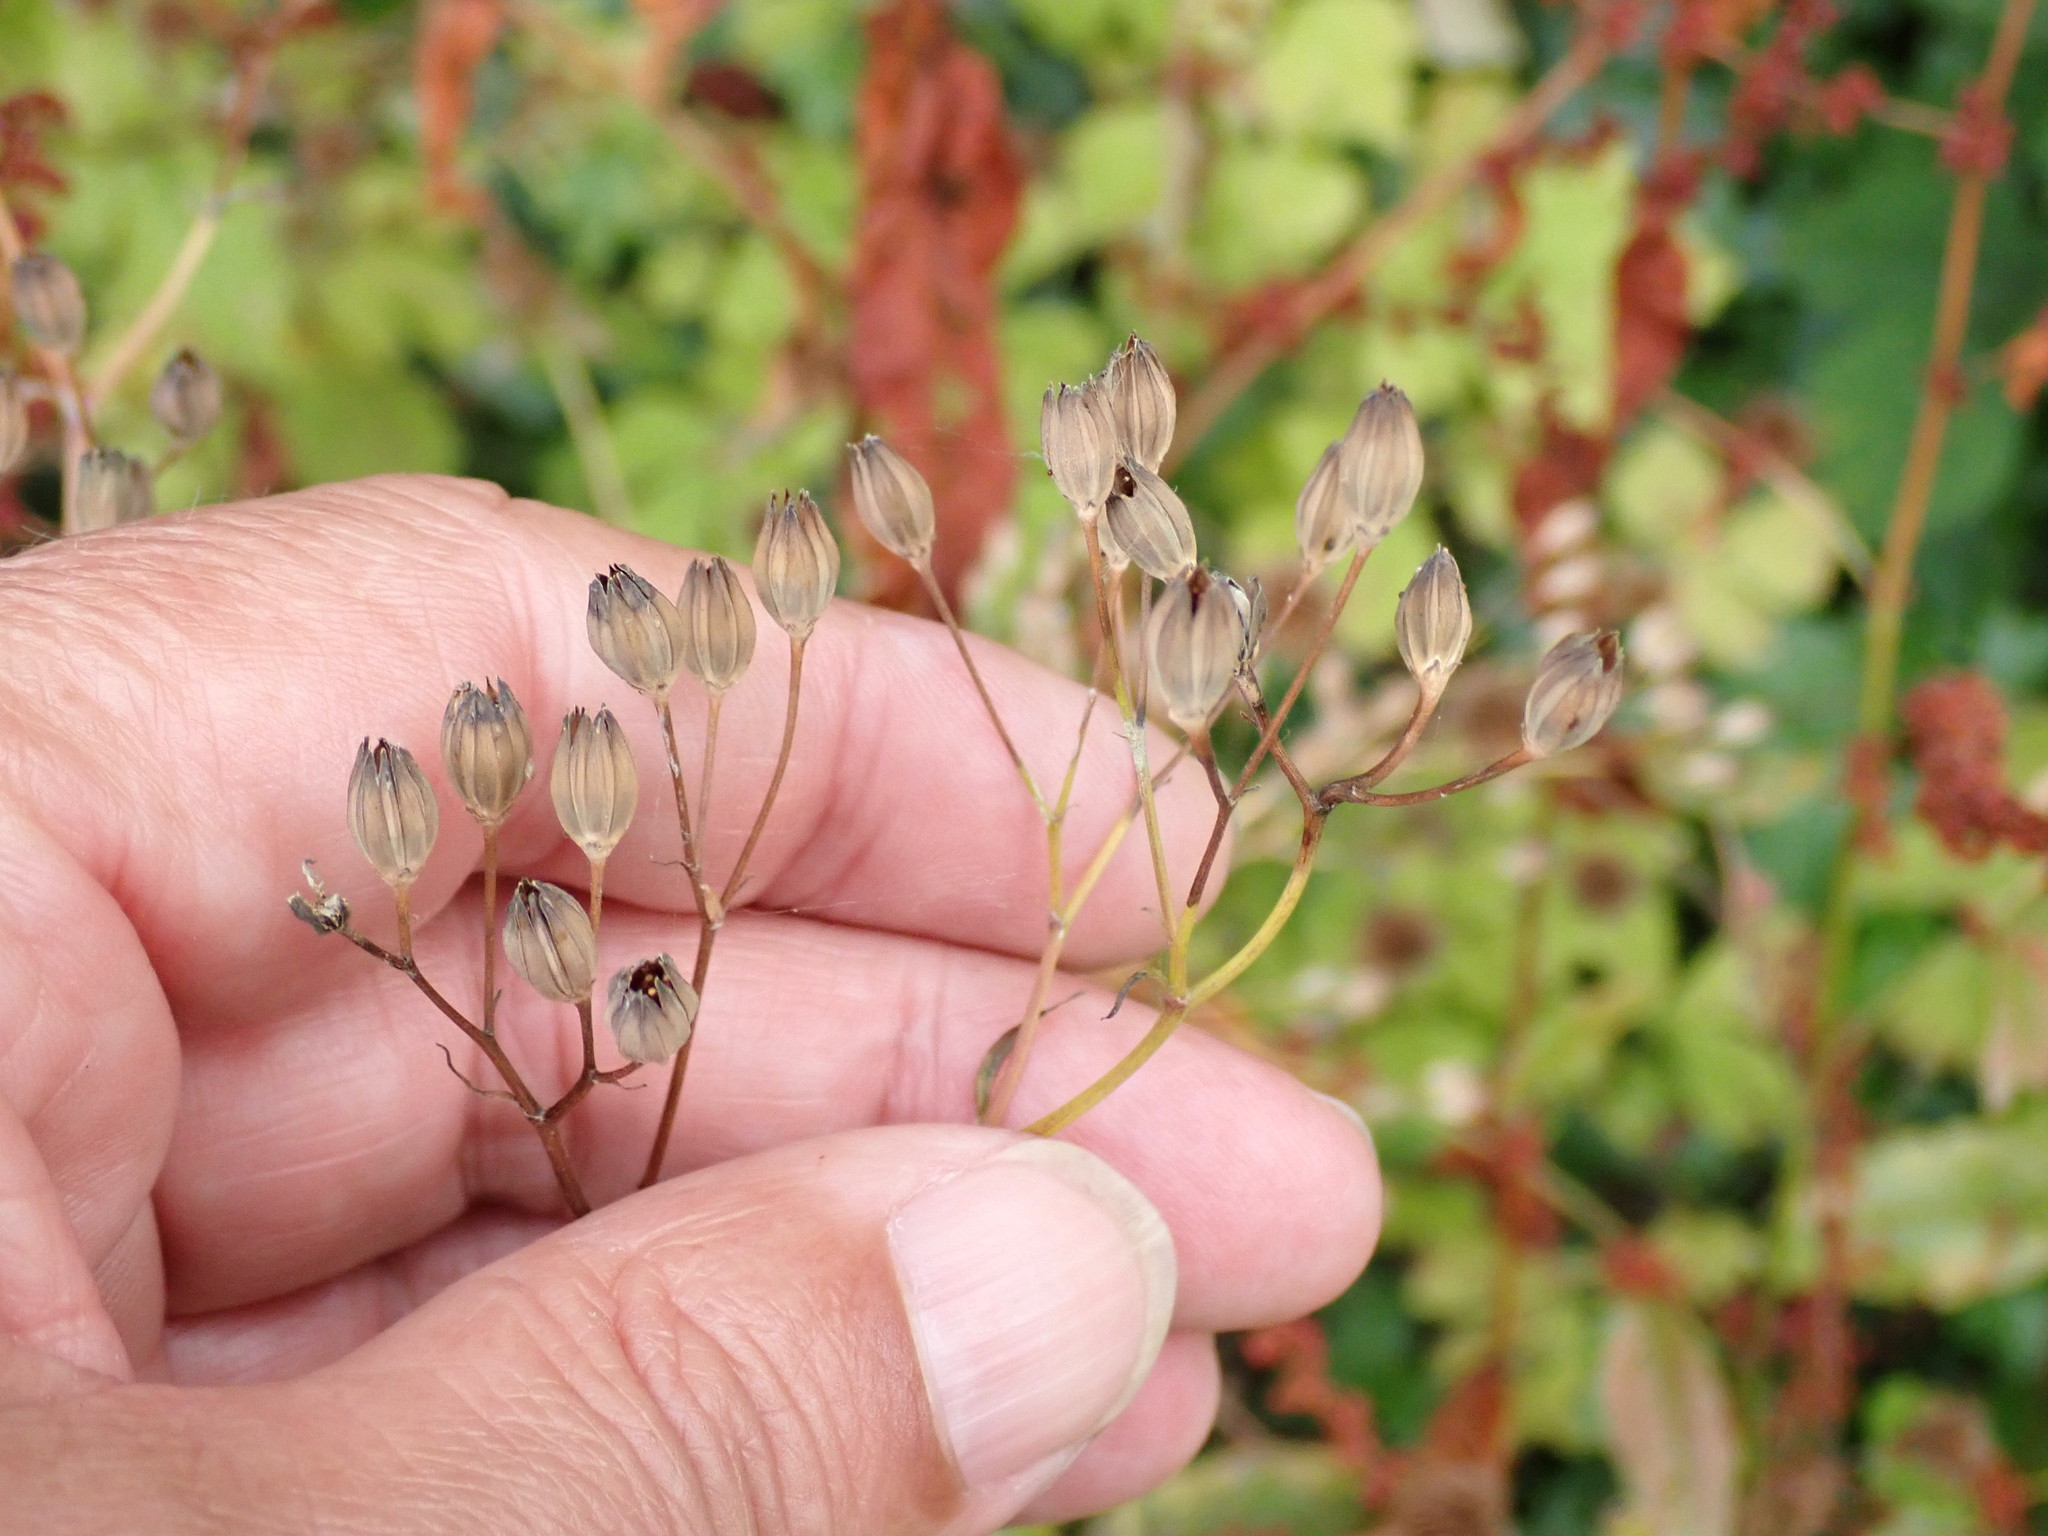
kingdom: Plantae
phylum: Tracheophyta
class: Magnoliopsida
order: Asterales
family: Asteraceae
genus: Lapsana
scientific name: Lapsana communis
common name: Nipplewort
